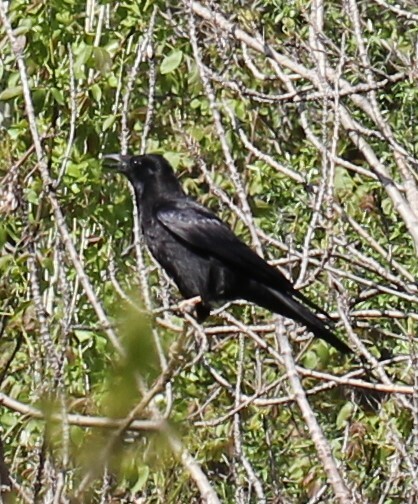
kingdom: Animalia
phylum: Chordata
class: Aves
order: Passeriformes
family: Corvidae
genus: Corvus
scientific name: Corvus corone
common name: Carrion crow
